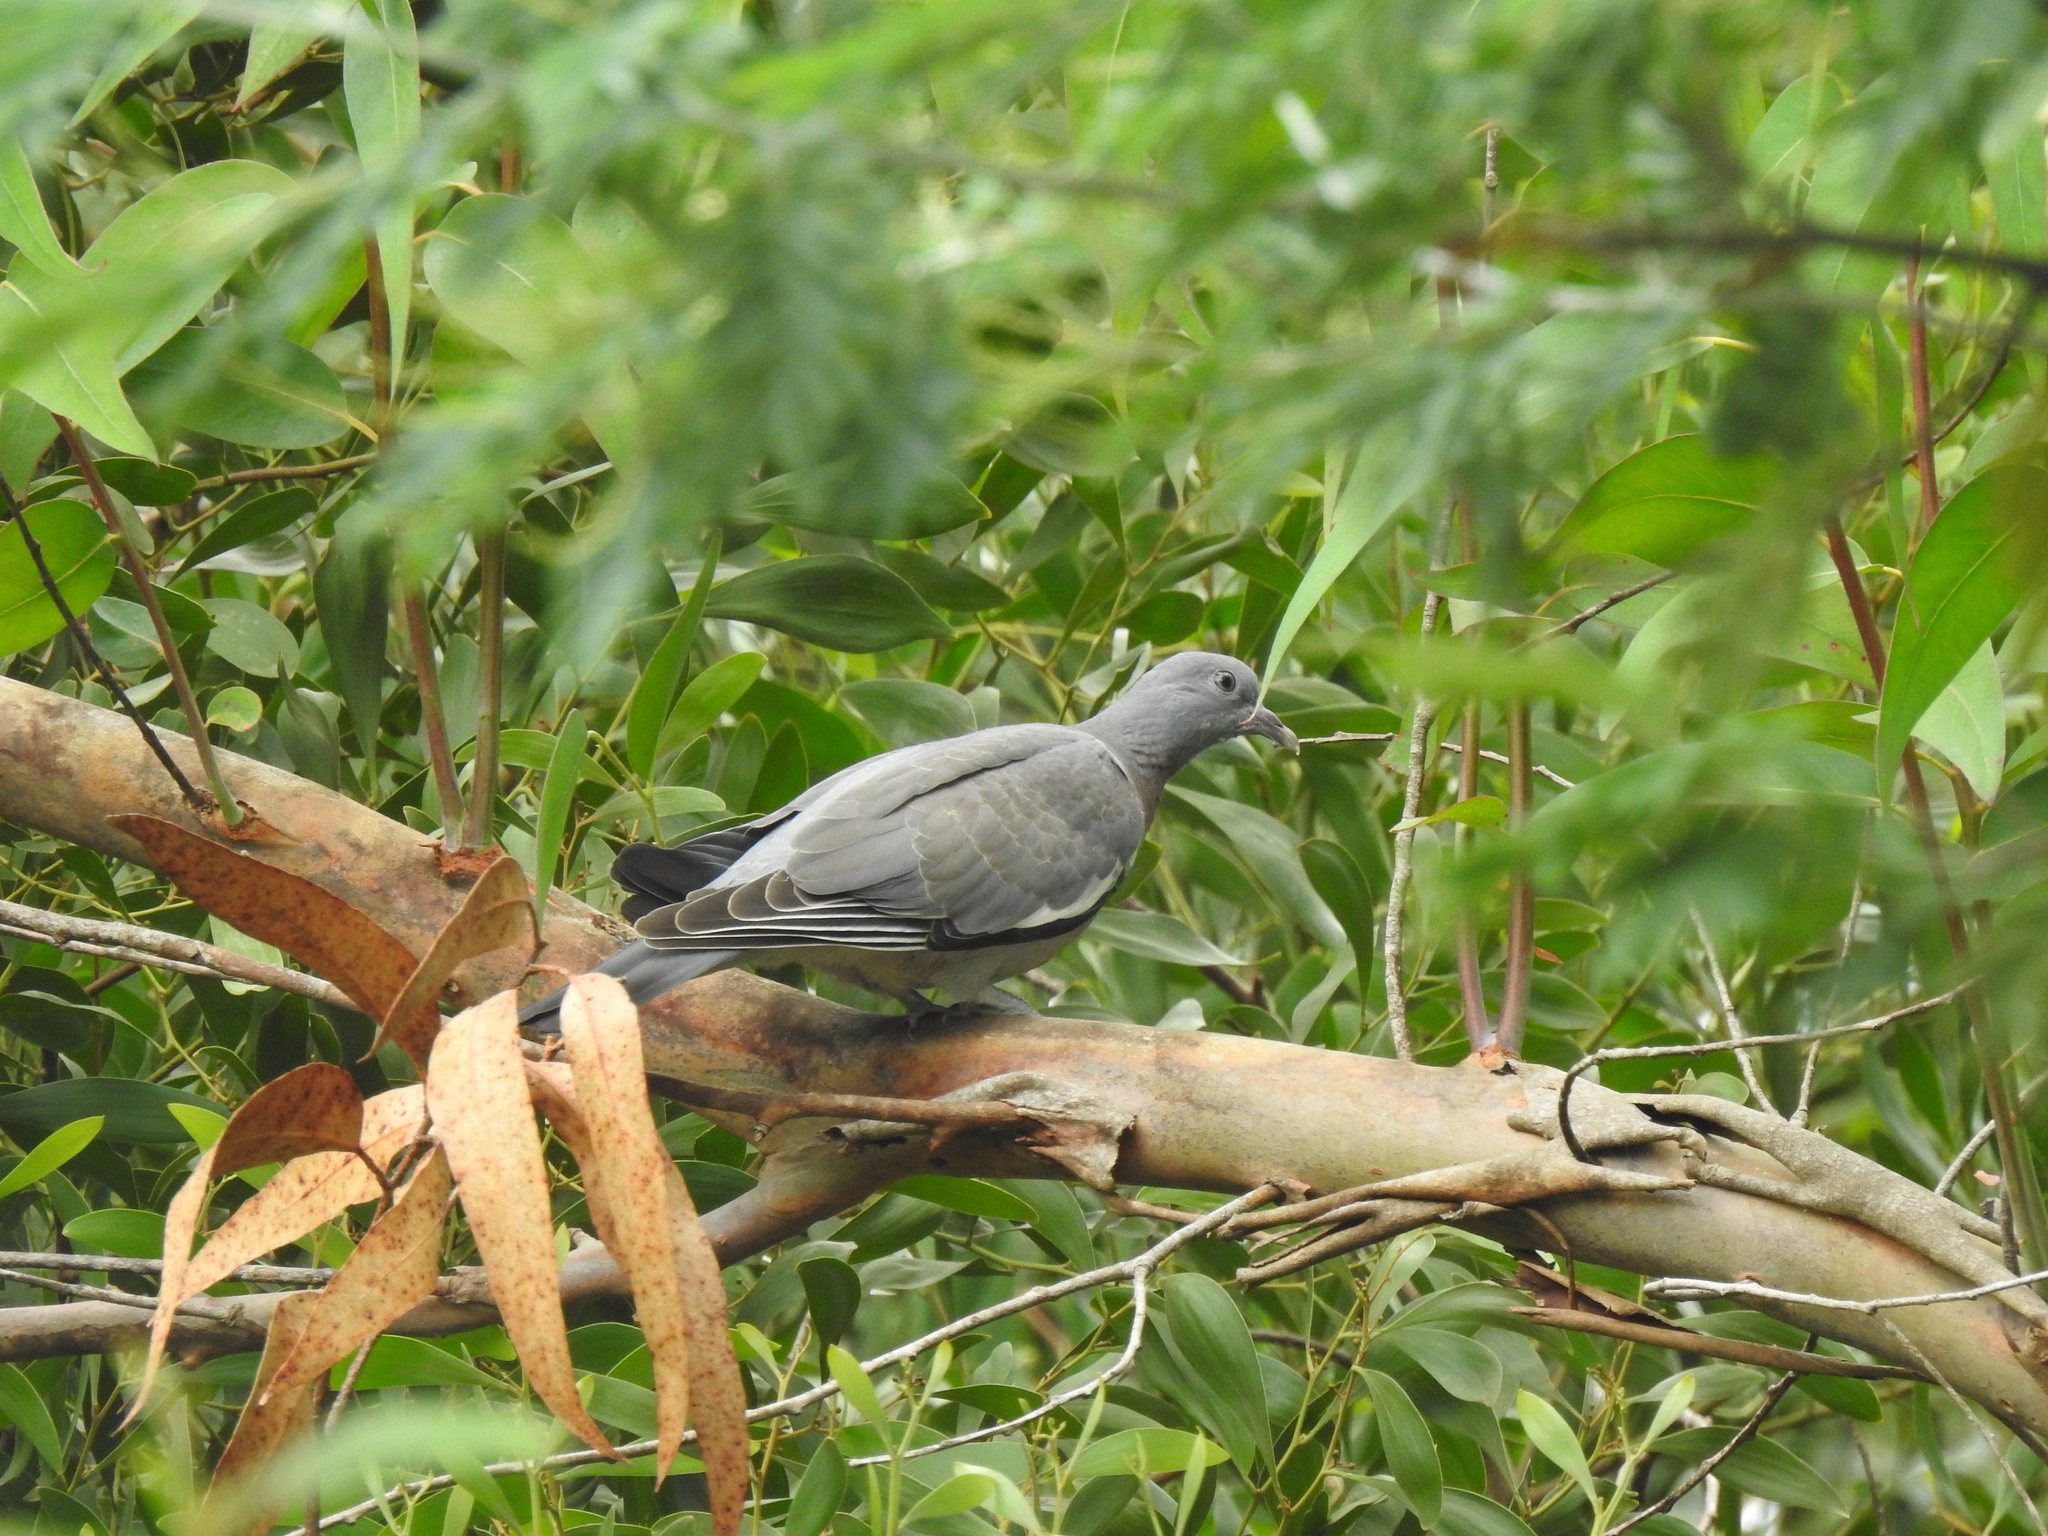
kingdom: Animalia
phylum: Chordata
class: Aves
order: Columbiformes
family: Columbidae
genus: Columba
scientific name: Columba palumbus
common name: Common wood pigeon
